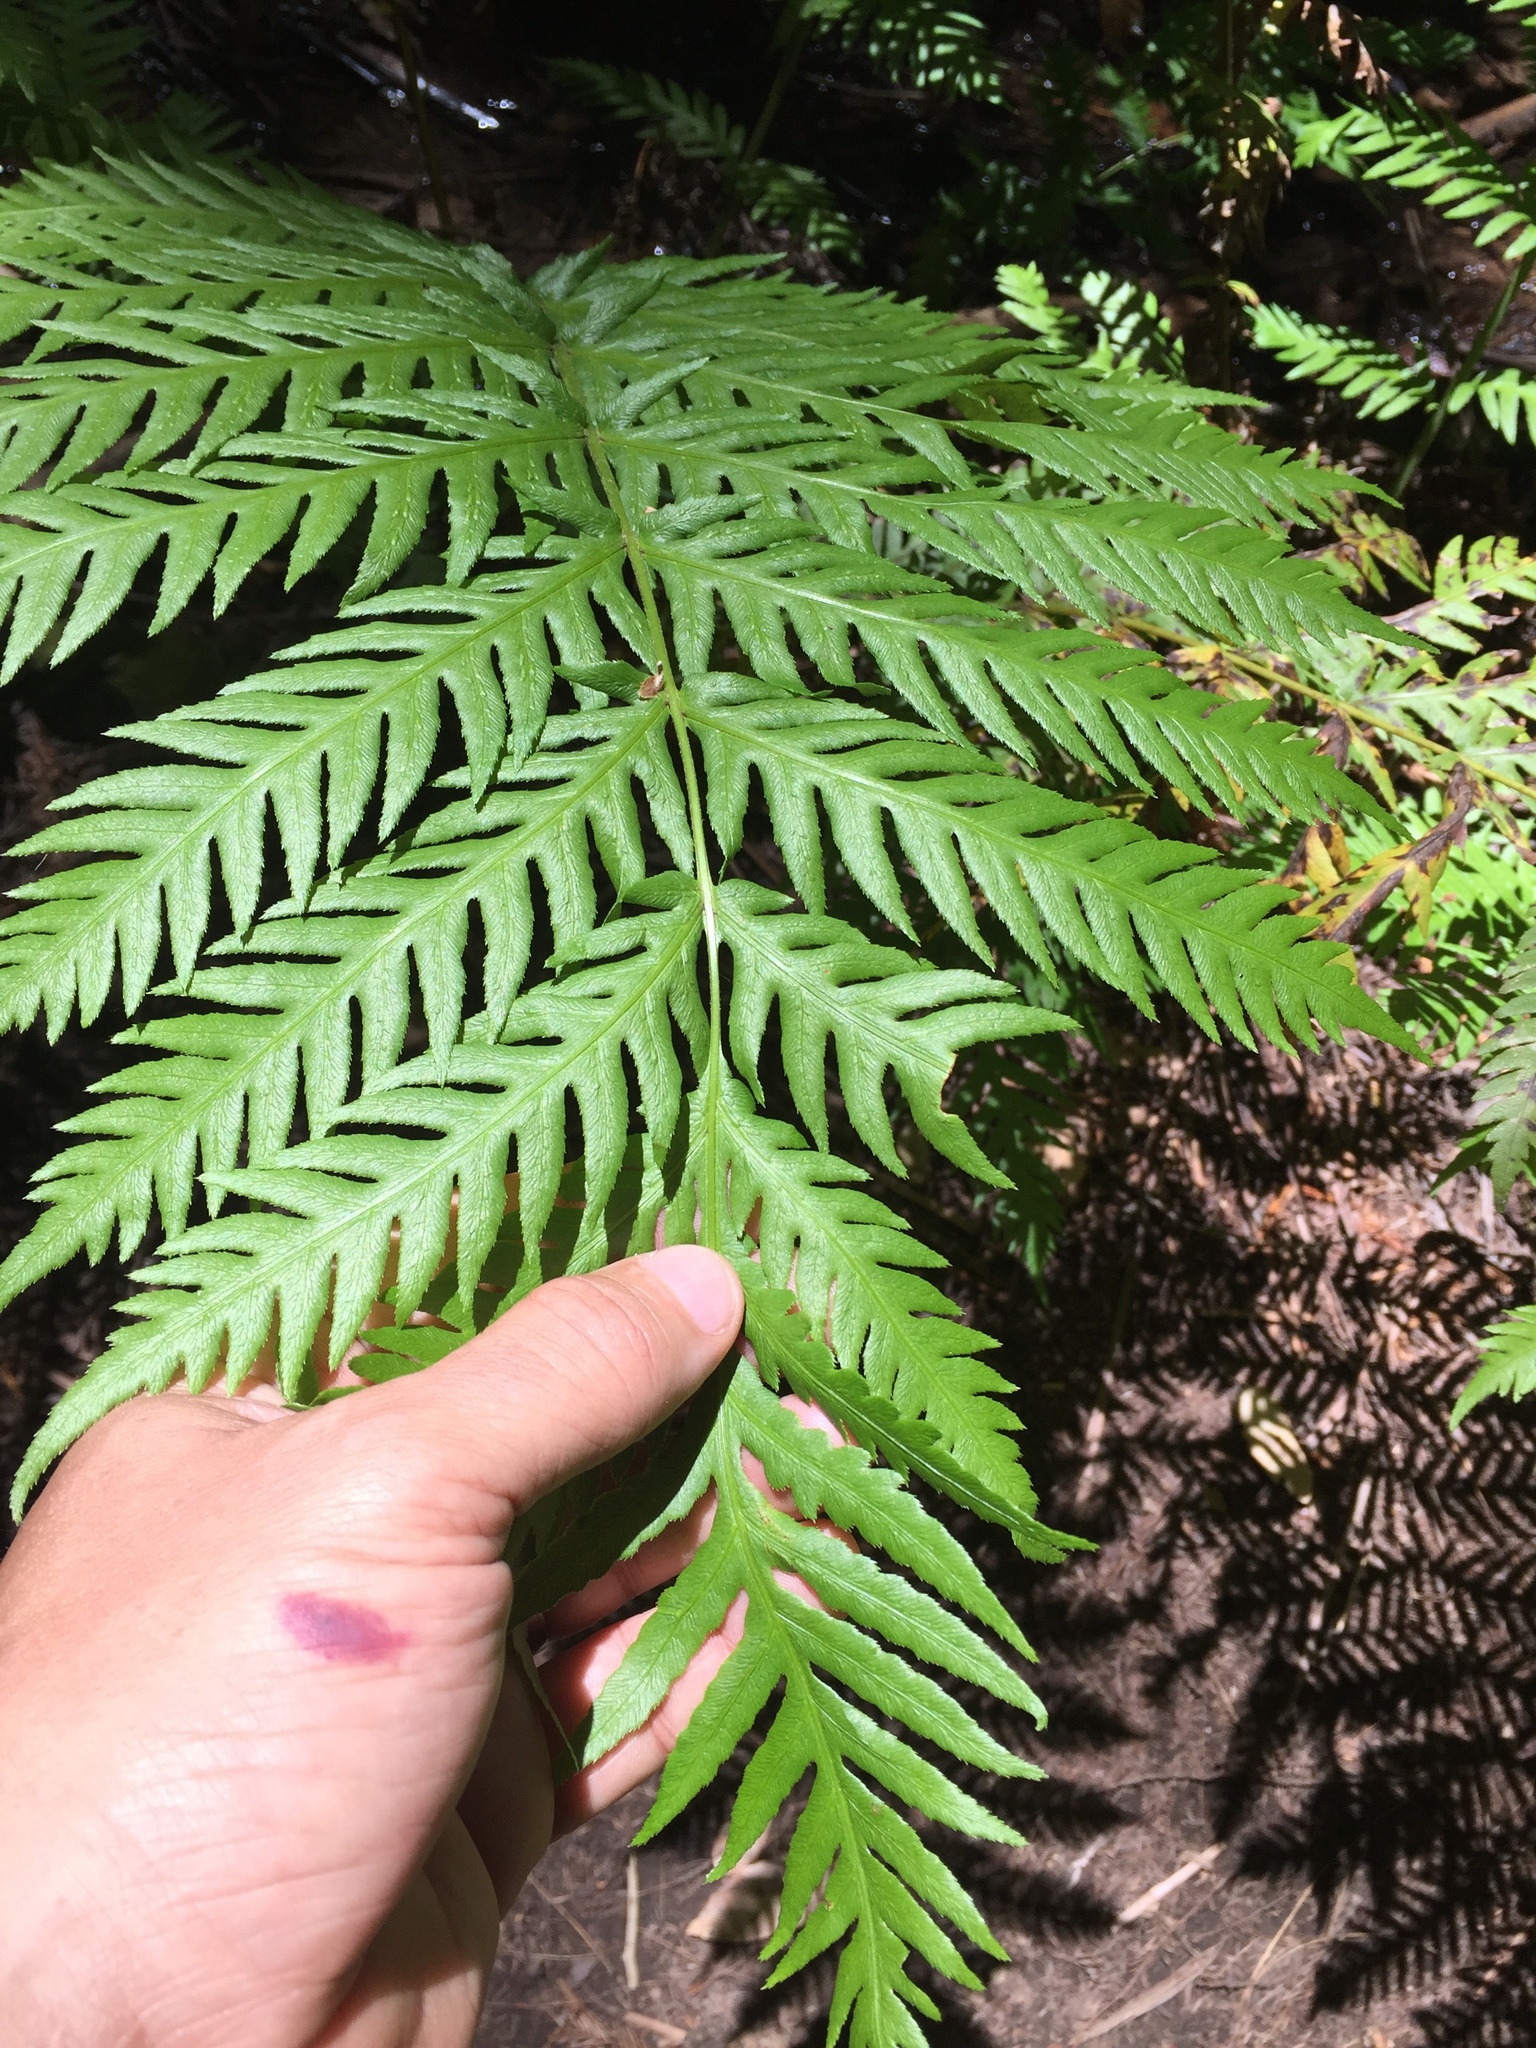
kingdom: Plantae
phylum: Tracheophyta
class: Polypodiopsida
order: Polypodiales
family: Blechnaceae
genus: Woodwardia
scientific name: Woodwardia fimbriata
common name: Giant chain fern
